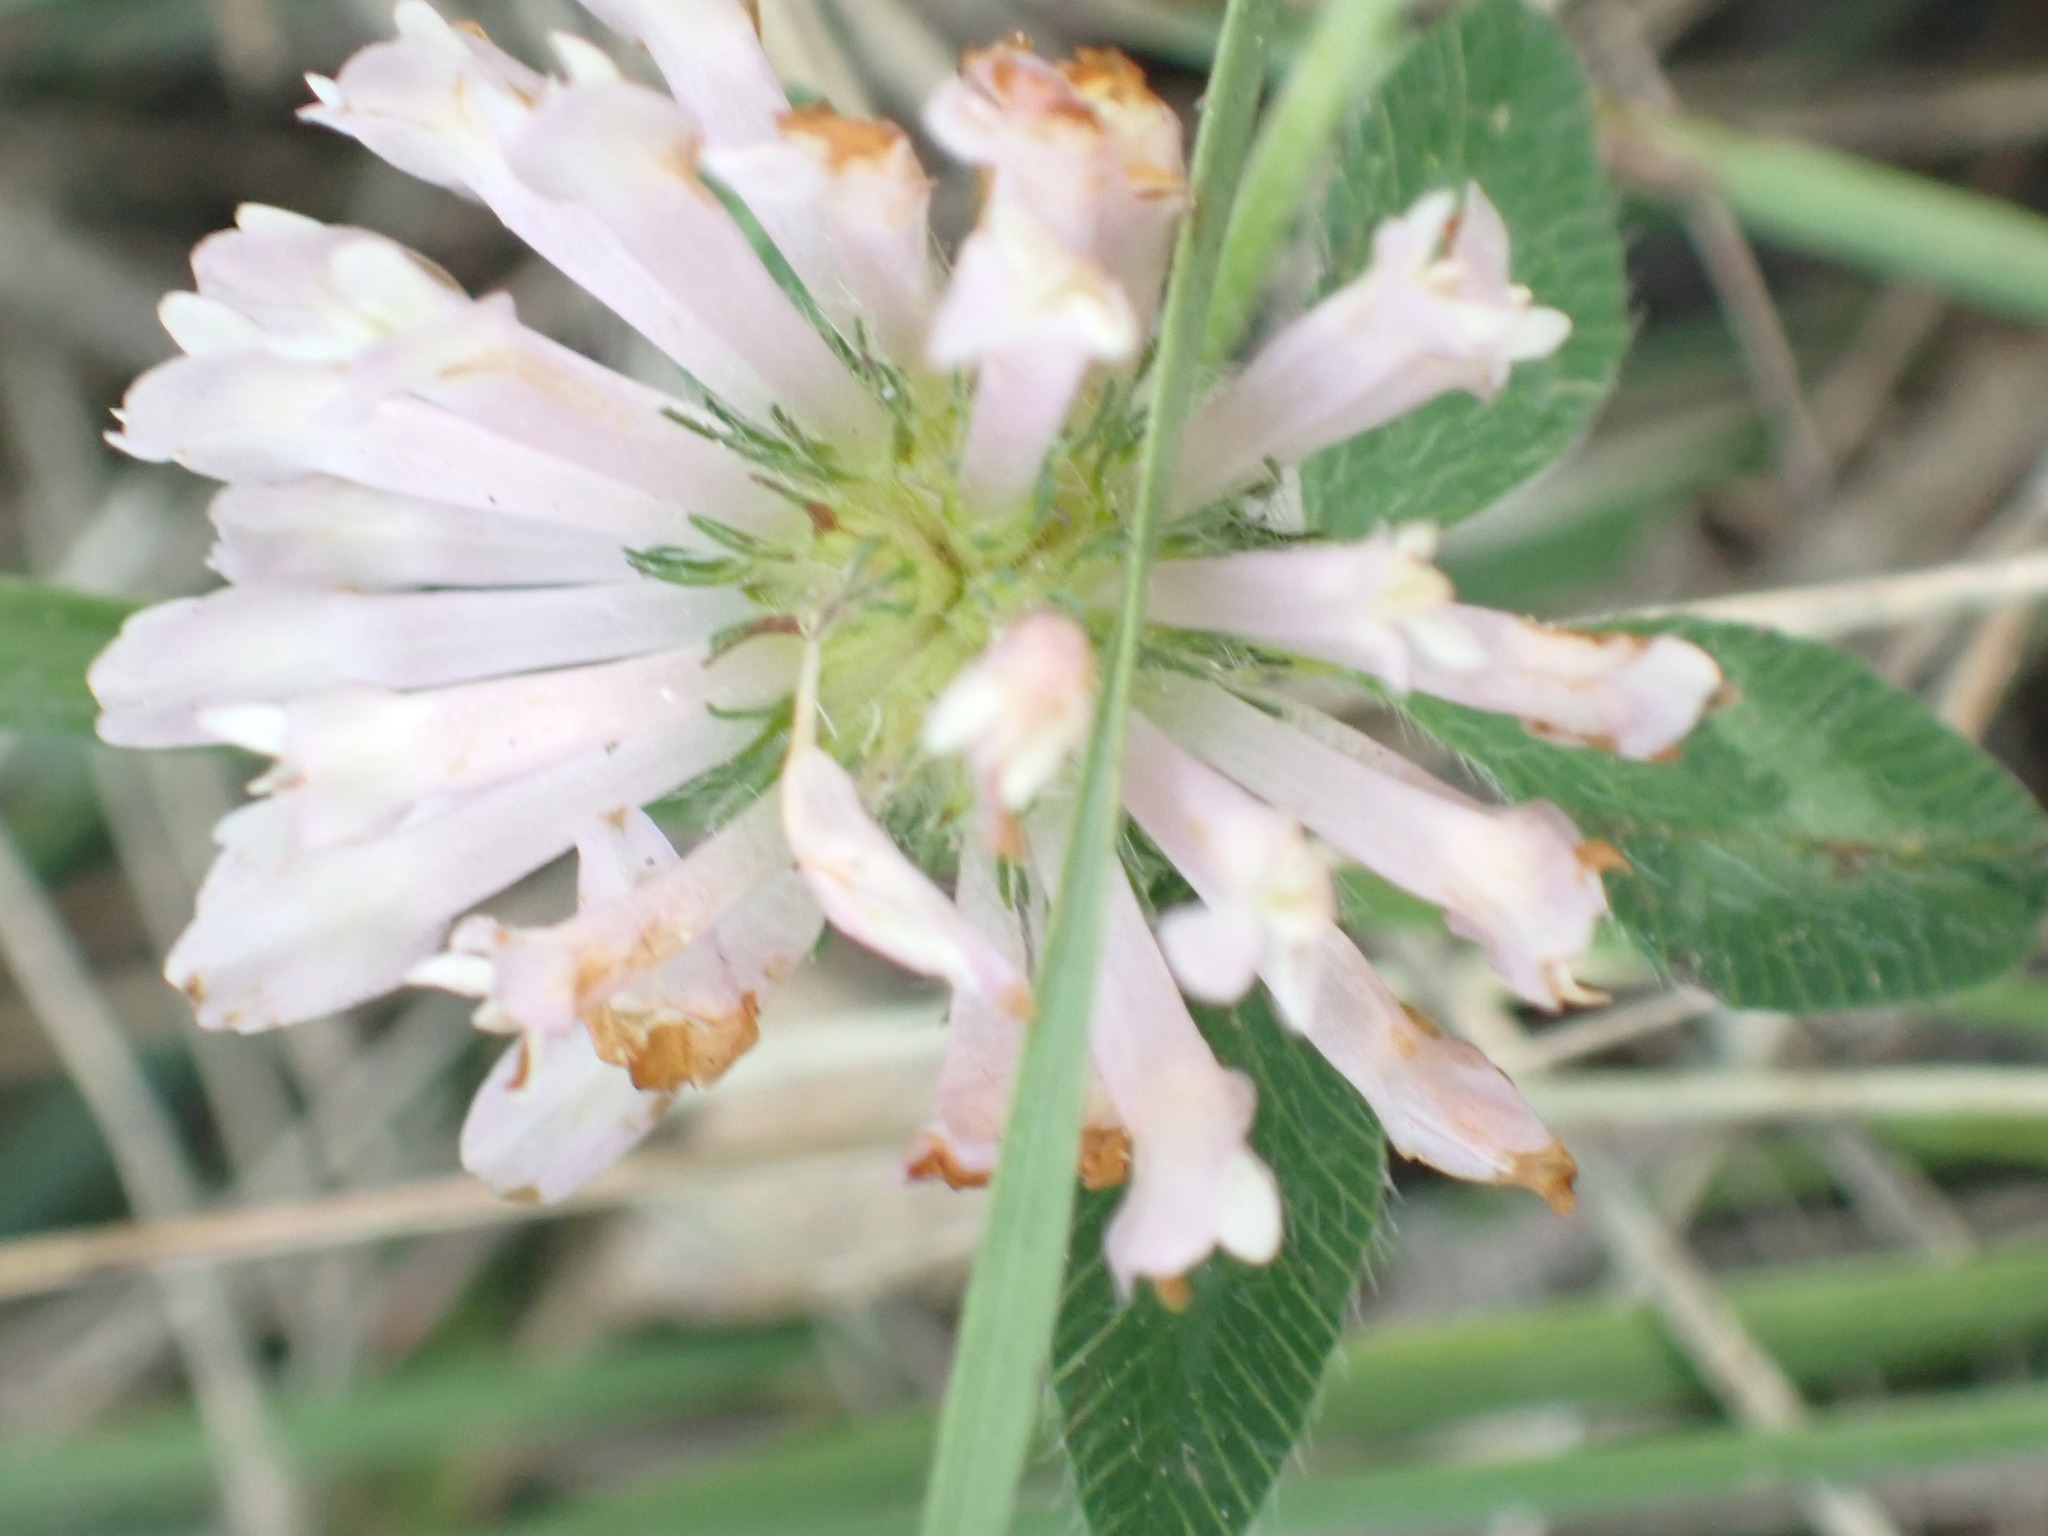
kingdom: Plantae
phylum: Tracheophyta
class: Magnoliopsida
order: Fabales
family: Fabaceae
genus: Trifolium
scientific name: Trifolium pratense
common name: Red clover
